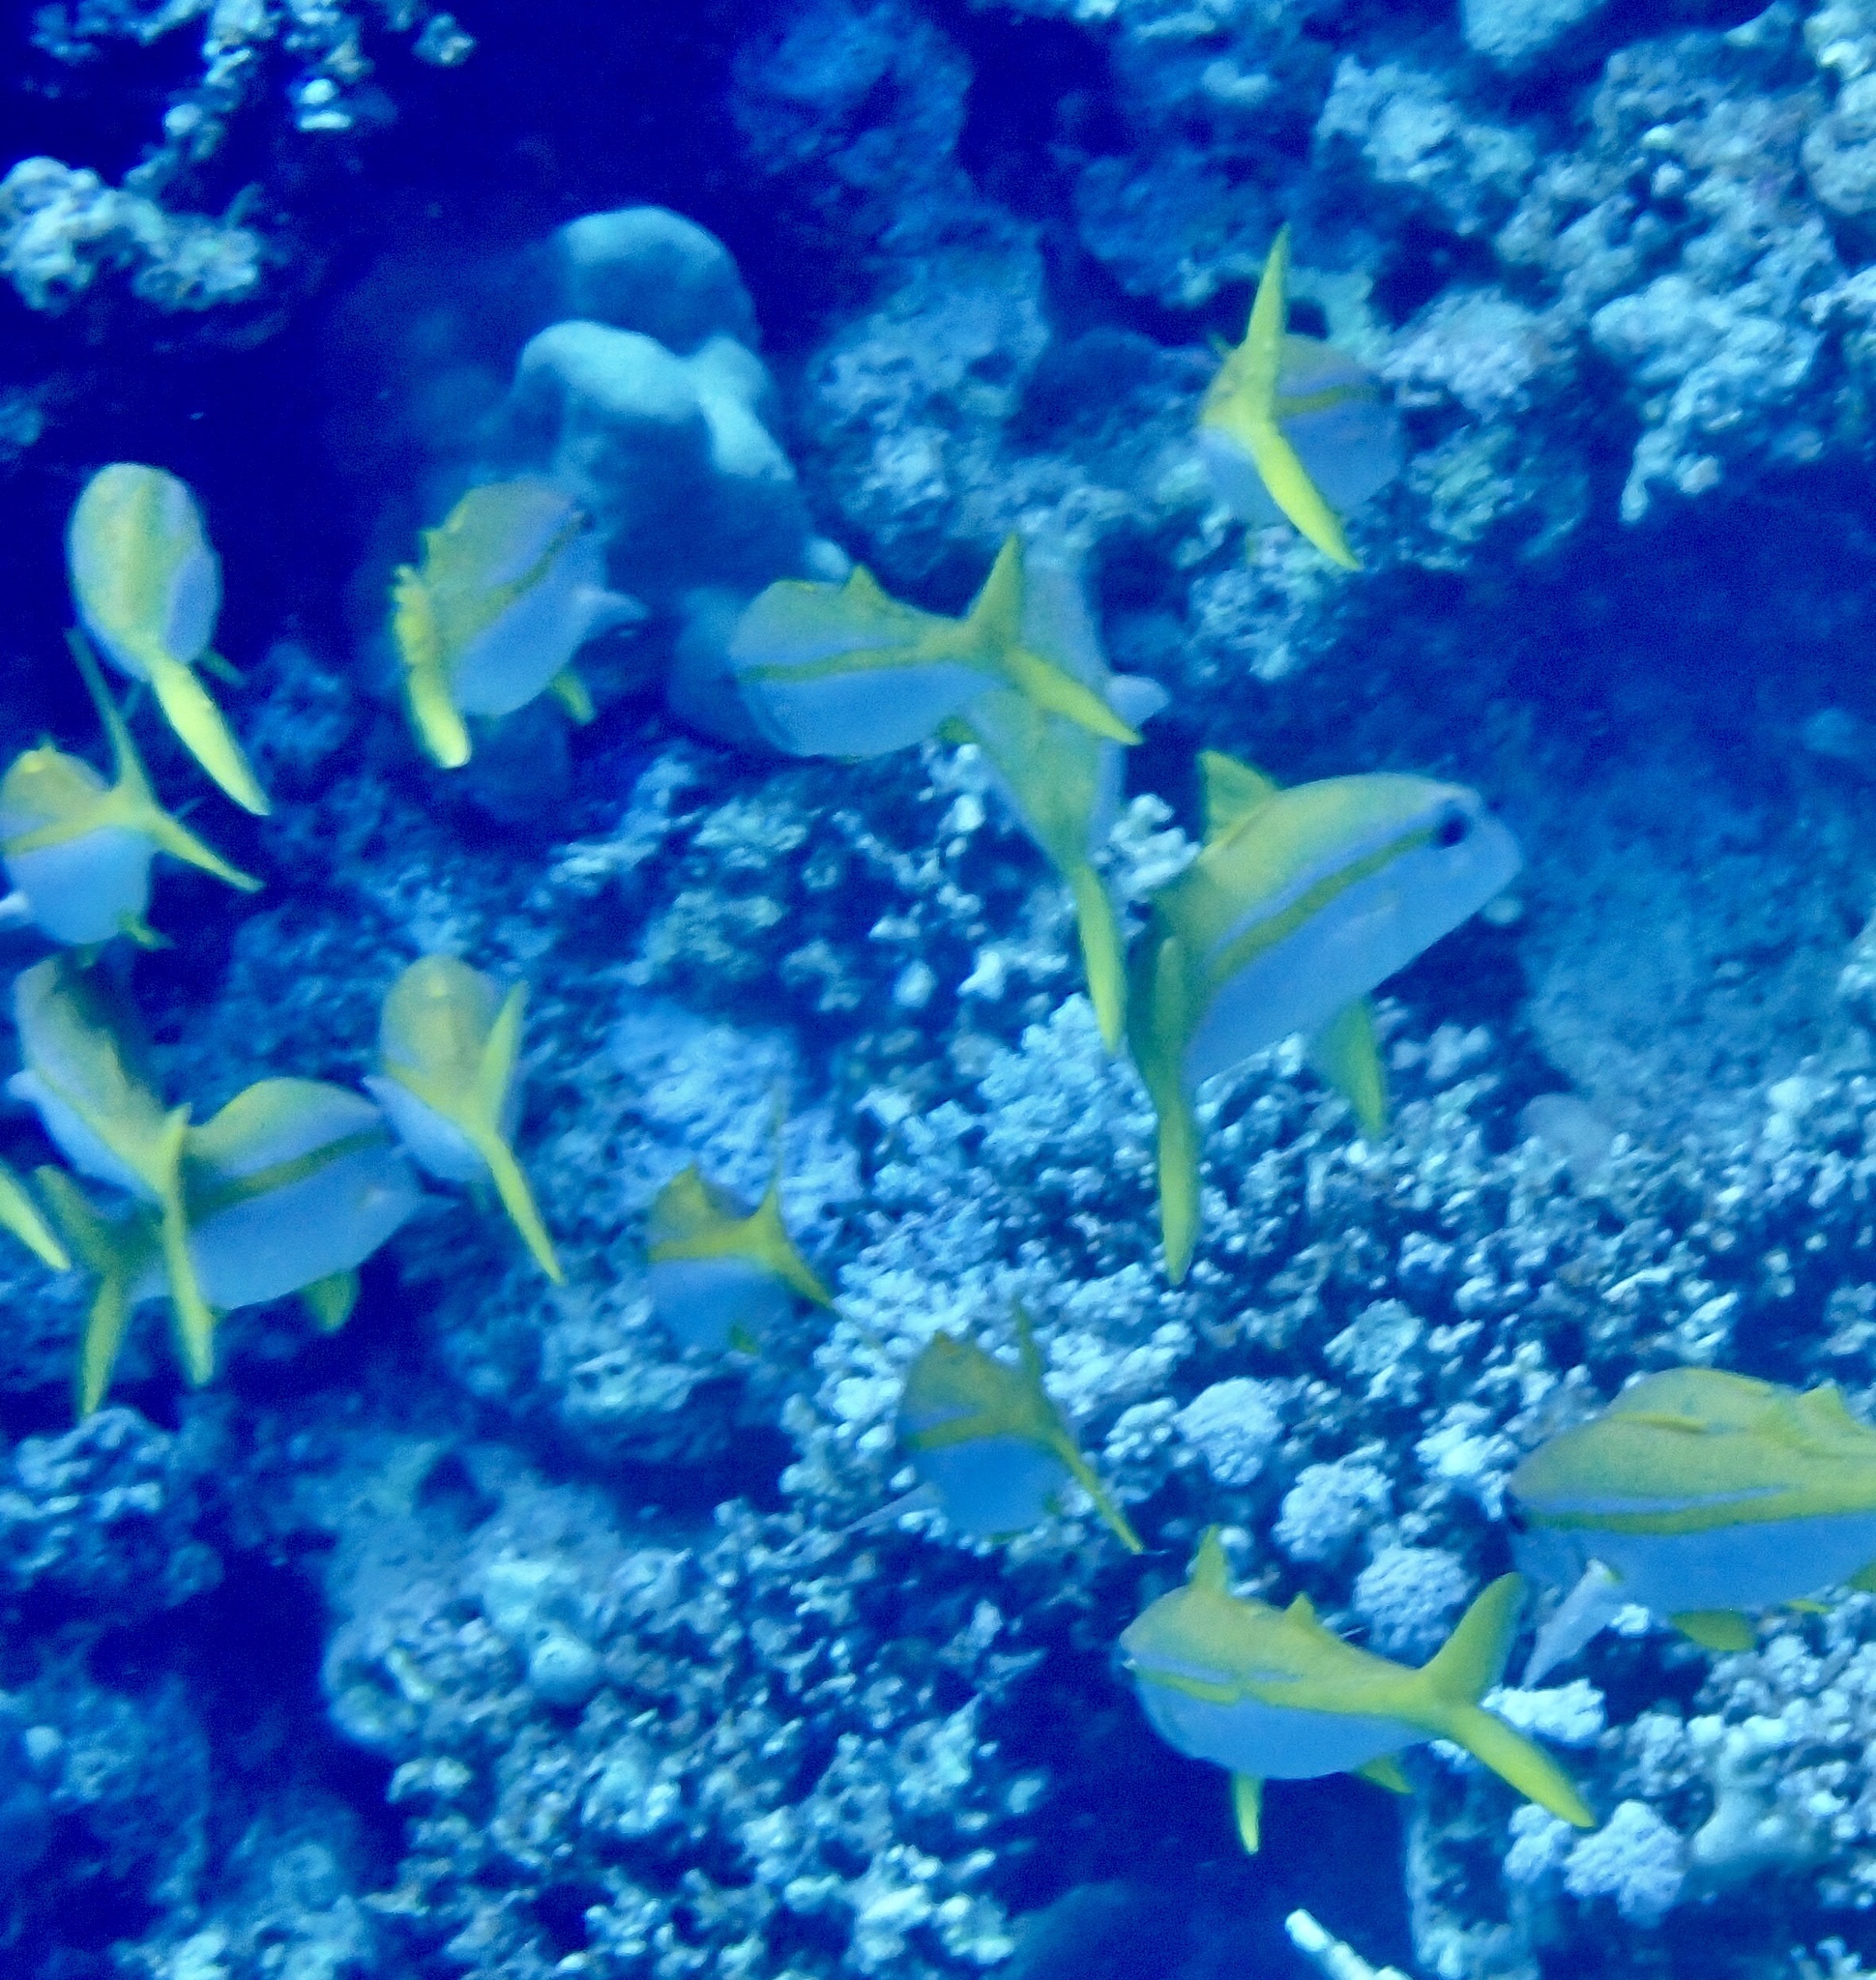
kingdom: Animalia
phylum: Chordata
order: Perciformes
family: Mullidae
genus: Mulloidichthys
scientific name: Mulloidichthys vanicolensis
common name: Yellowfin goatfish
